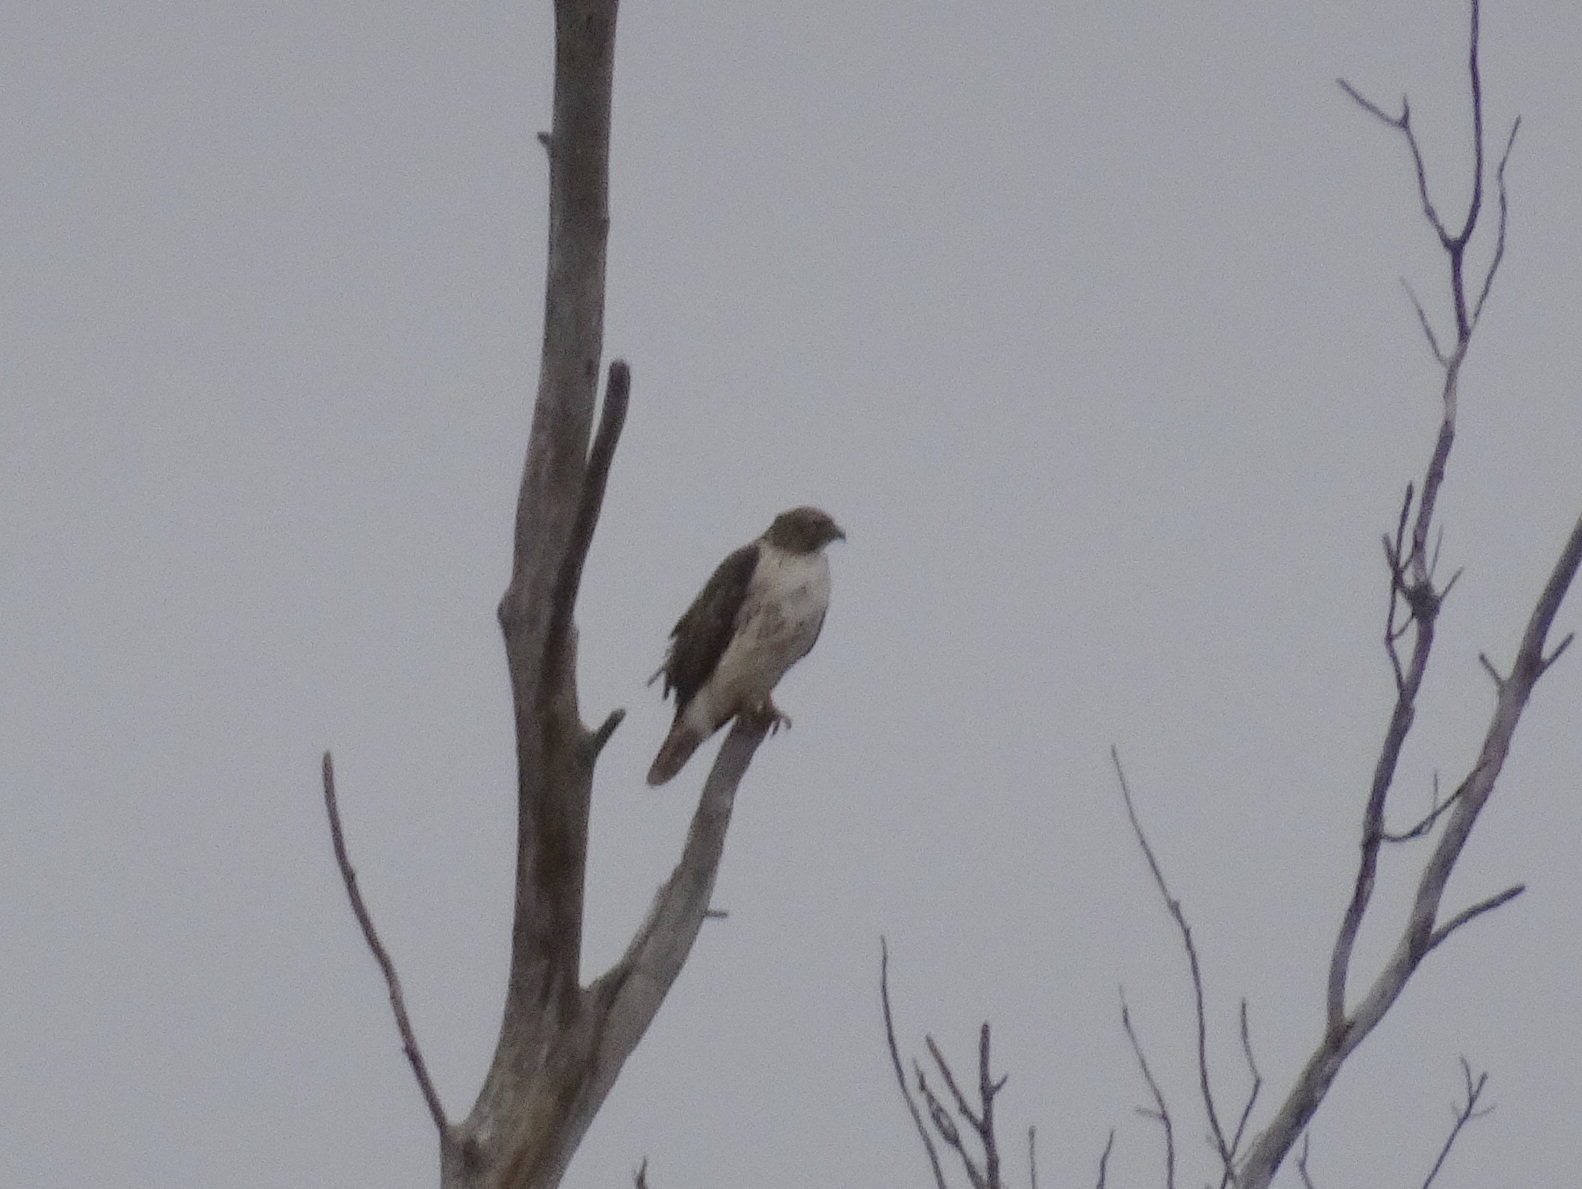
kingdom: Animalia
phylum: Chordata
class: Aves
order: Accipitriformes
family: Accipitridae
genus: Buteo
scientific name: Buteo jamaicensis
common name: Red-tailed hawk
